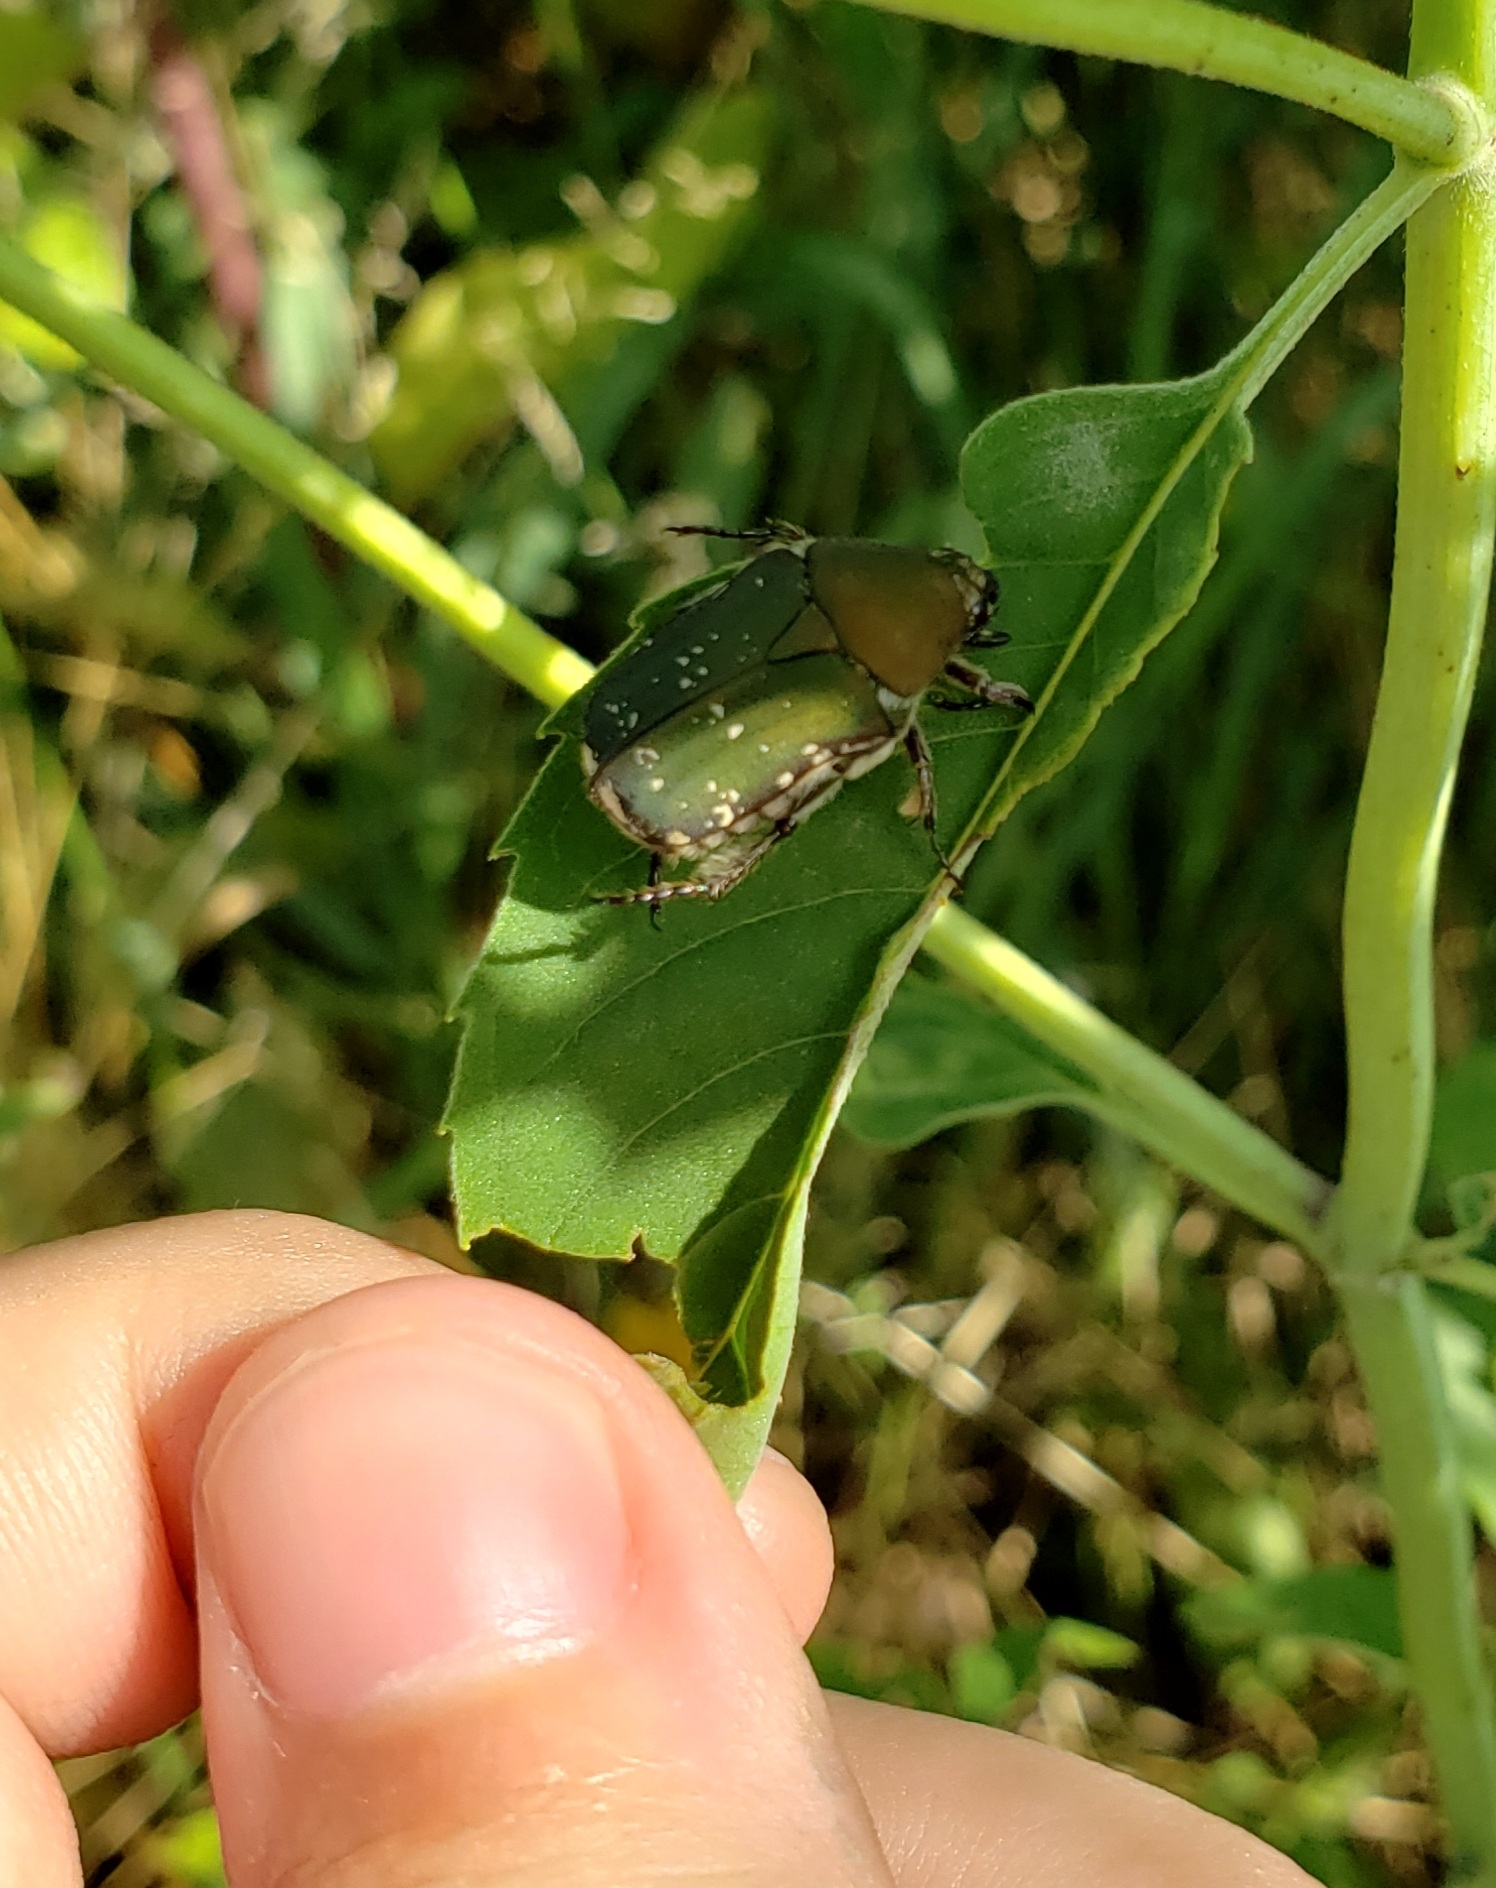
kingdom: Animalia
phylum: Arthropoda
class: Insecta
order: Coleoptera
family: Scarabaeidae
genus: Euphoria
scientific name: Euphoria herbacea
